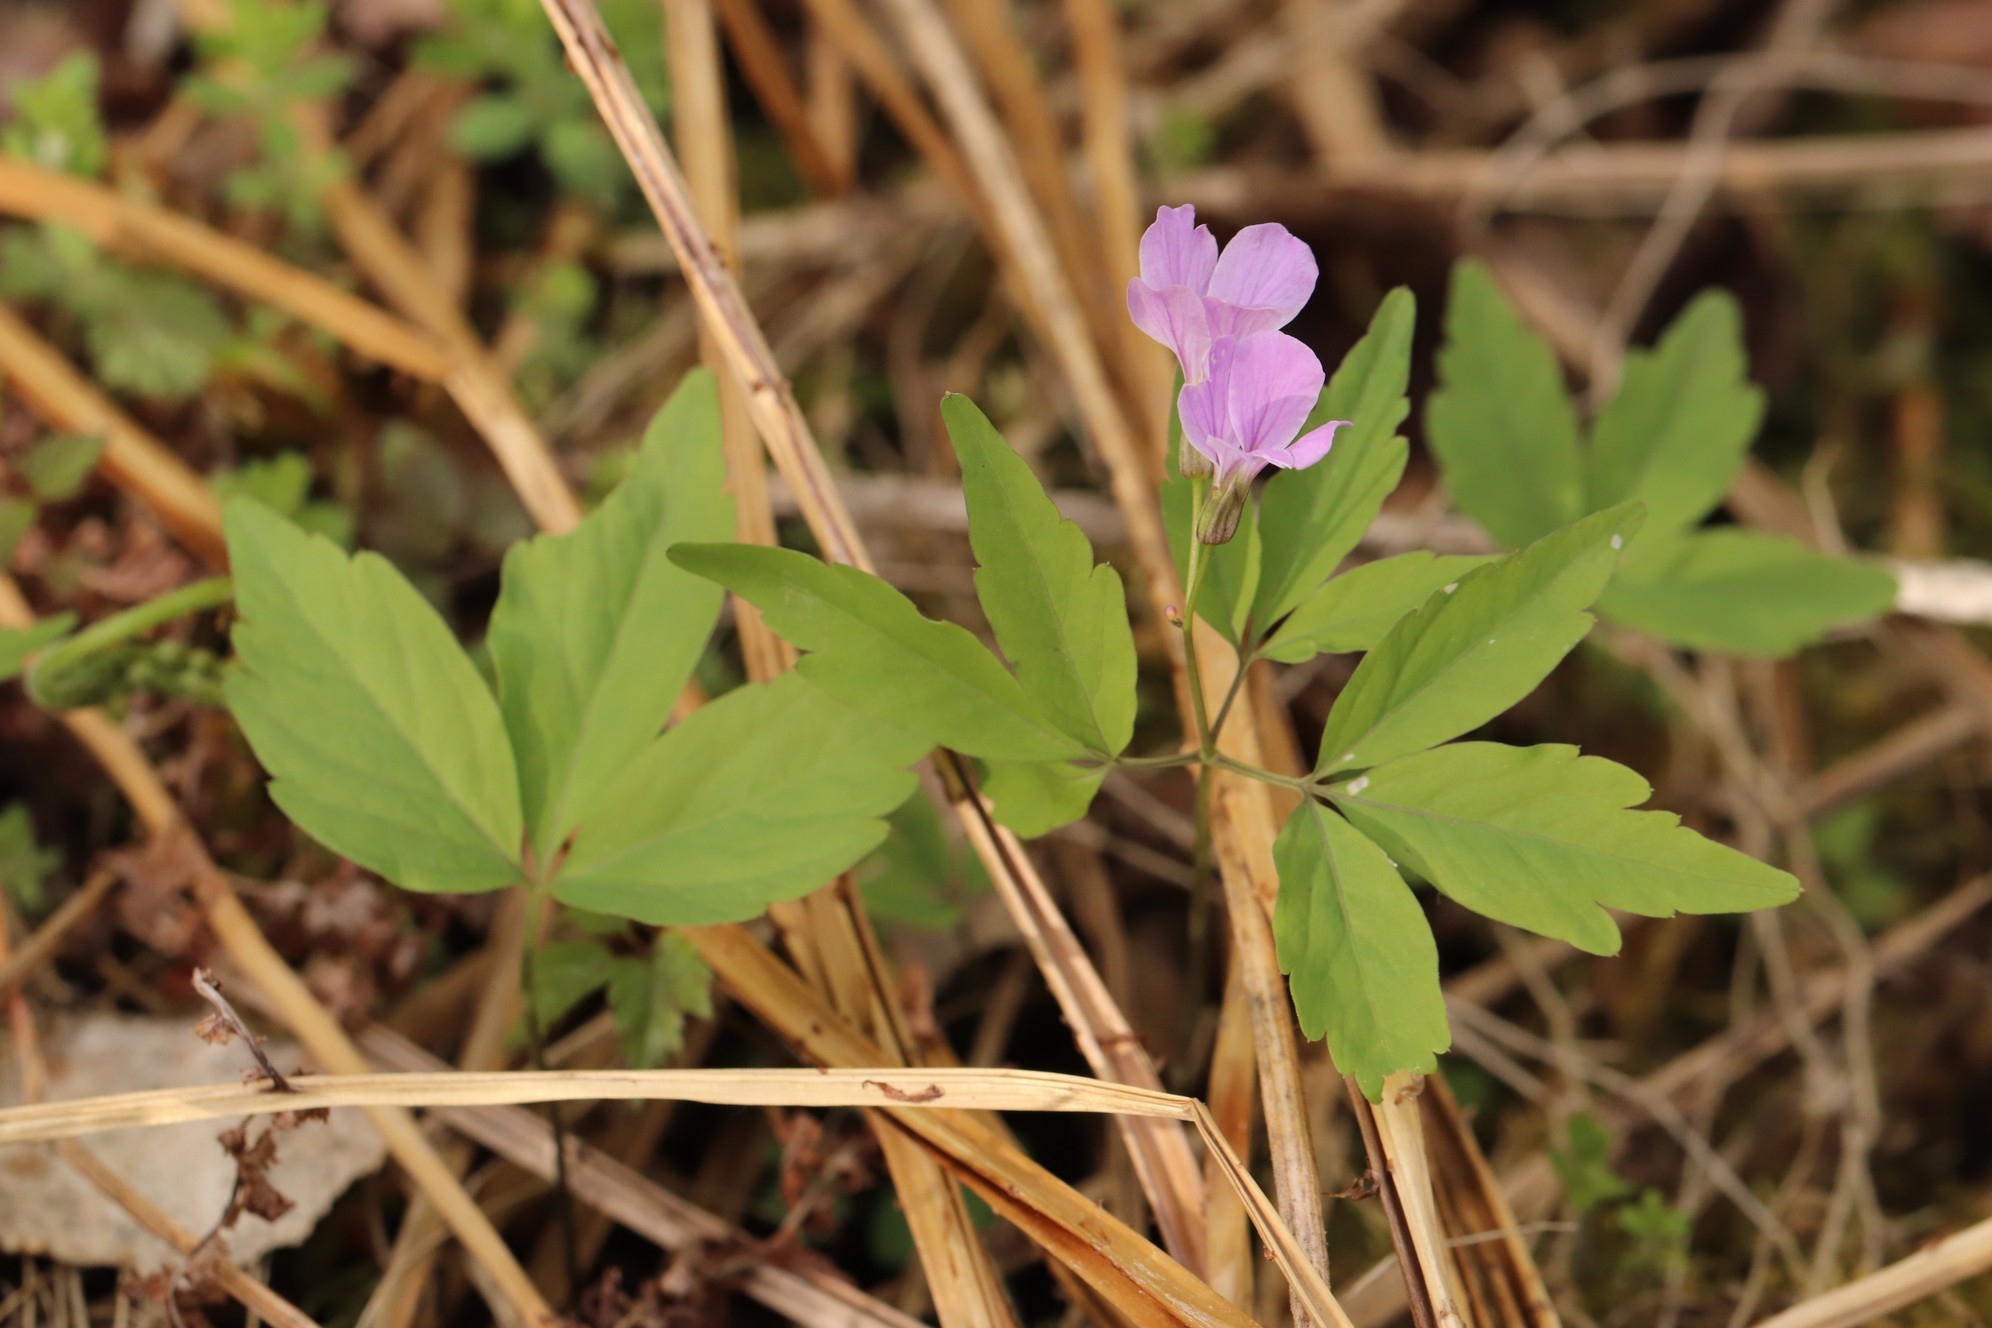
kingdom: Plantae
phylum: Tracheophyta
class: Magnoliopsida
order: Brassicales
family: Brassicaceae
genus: Cardamine
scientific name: Cardamine altaica
